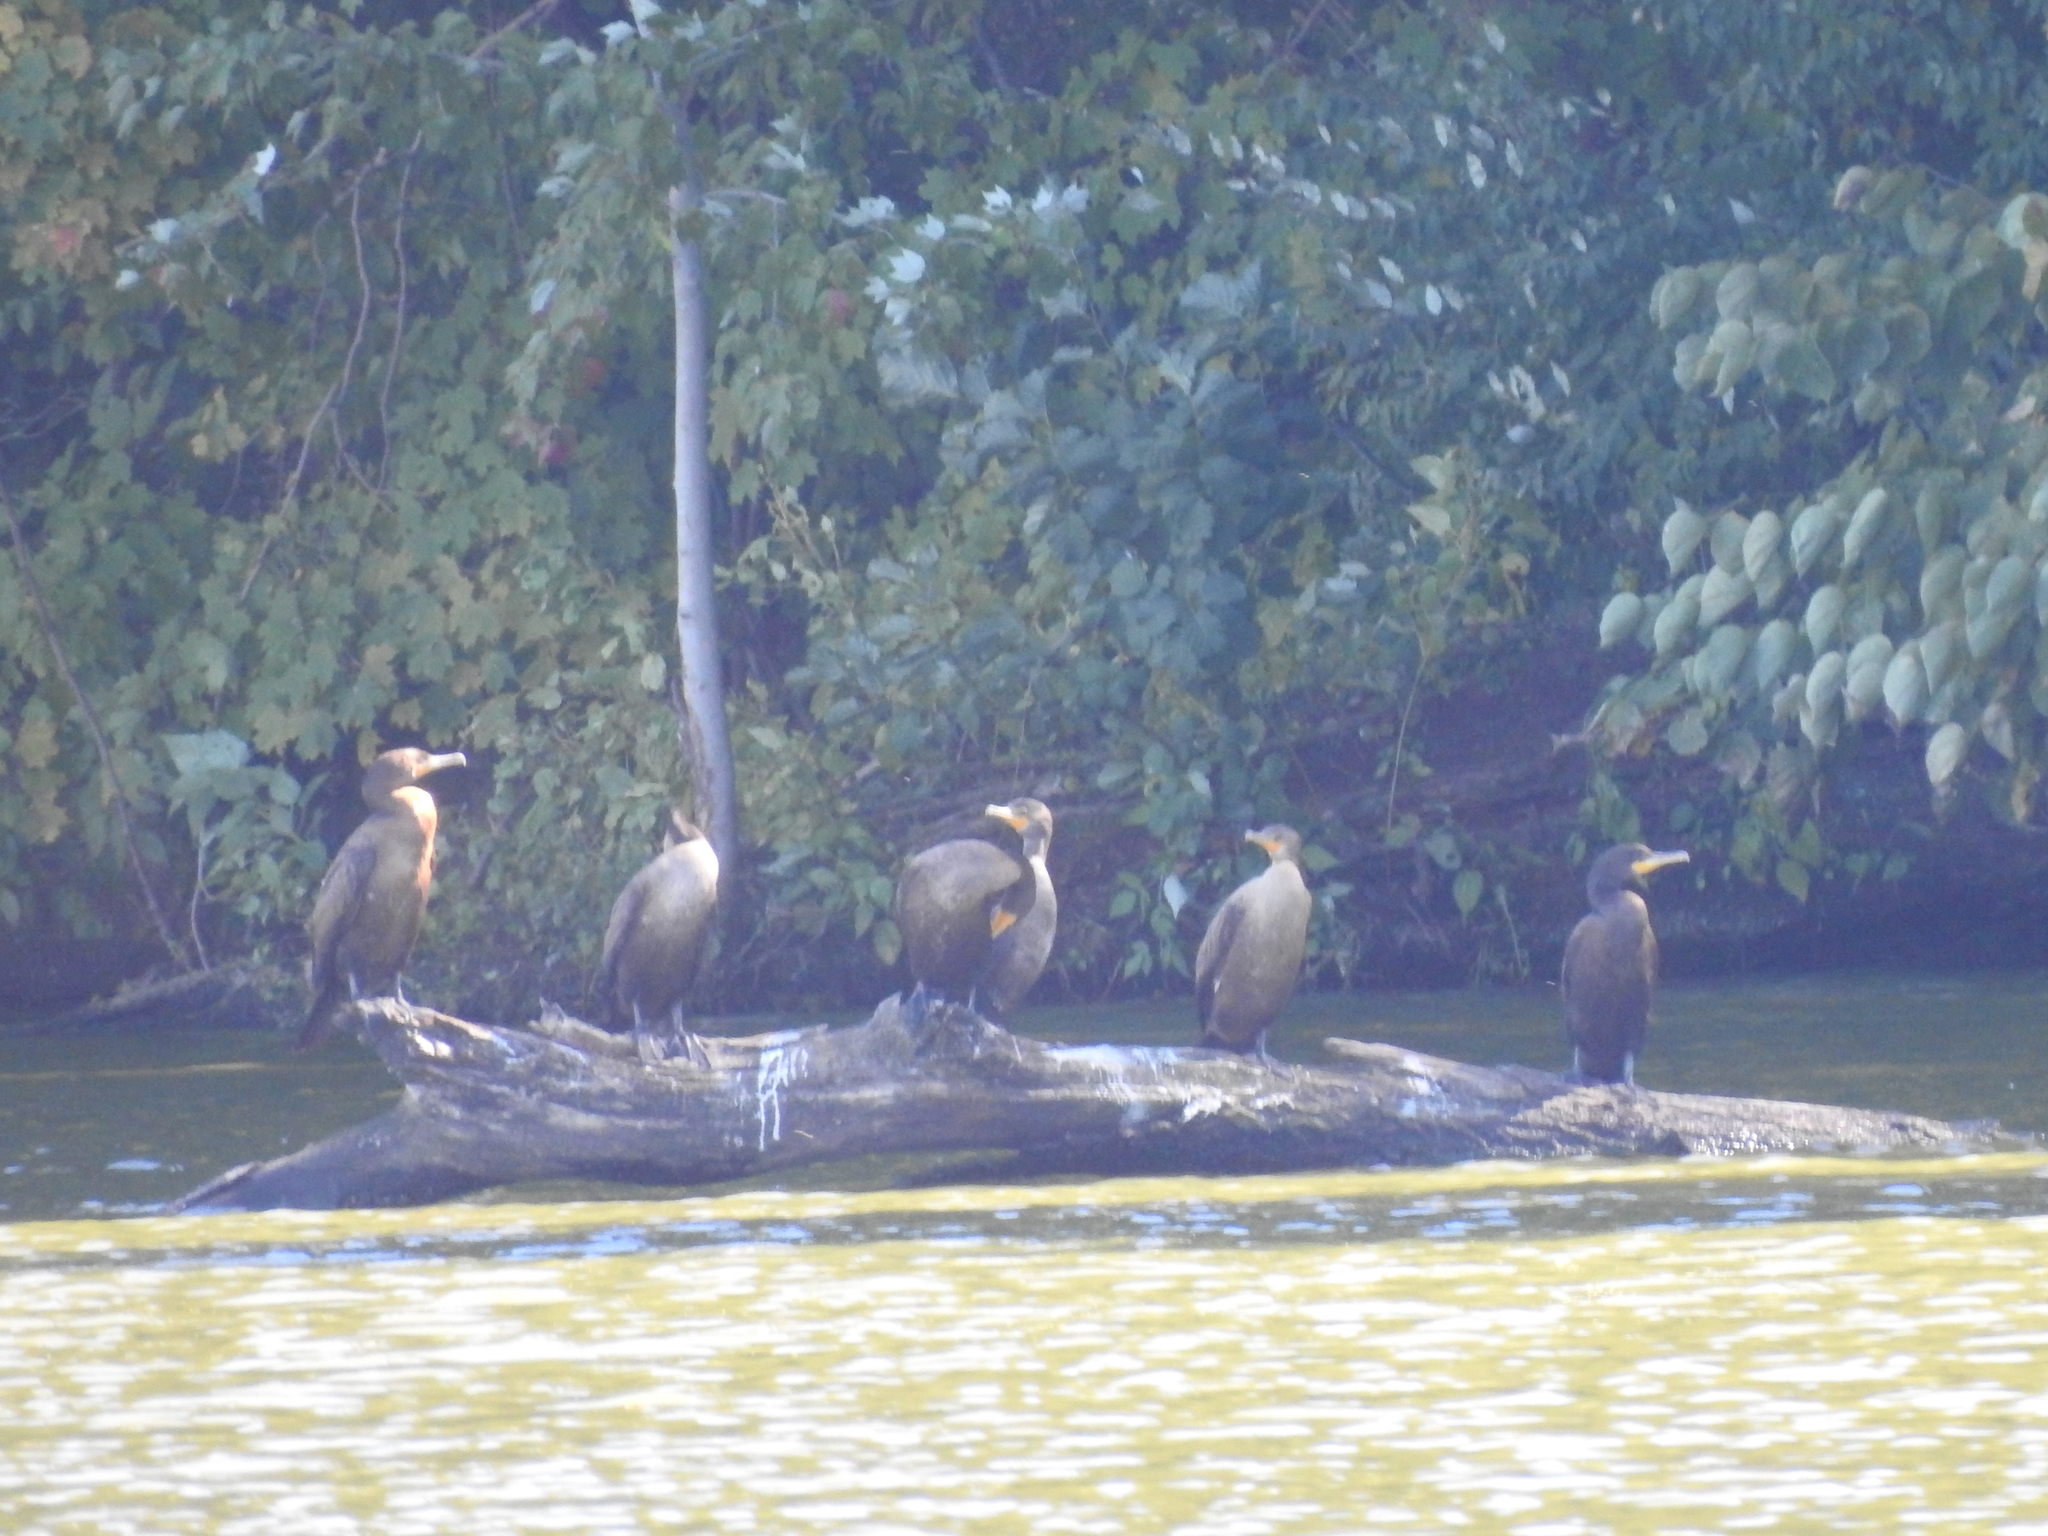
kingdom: Animalia
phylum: Chordata
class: Aves
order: Suliformes
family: Phalacrocoracidae
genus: Phalacrocorax
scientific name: Phalacrocorax auritus
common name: Double-crested cormorant
